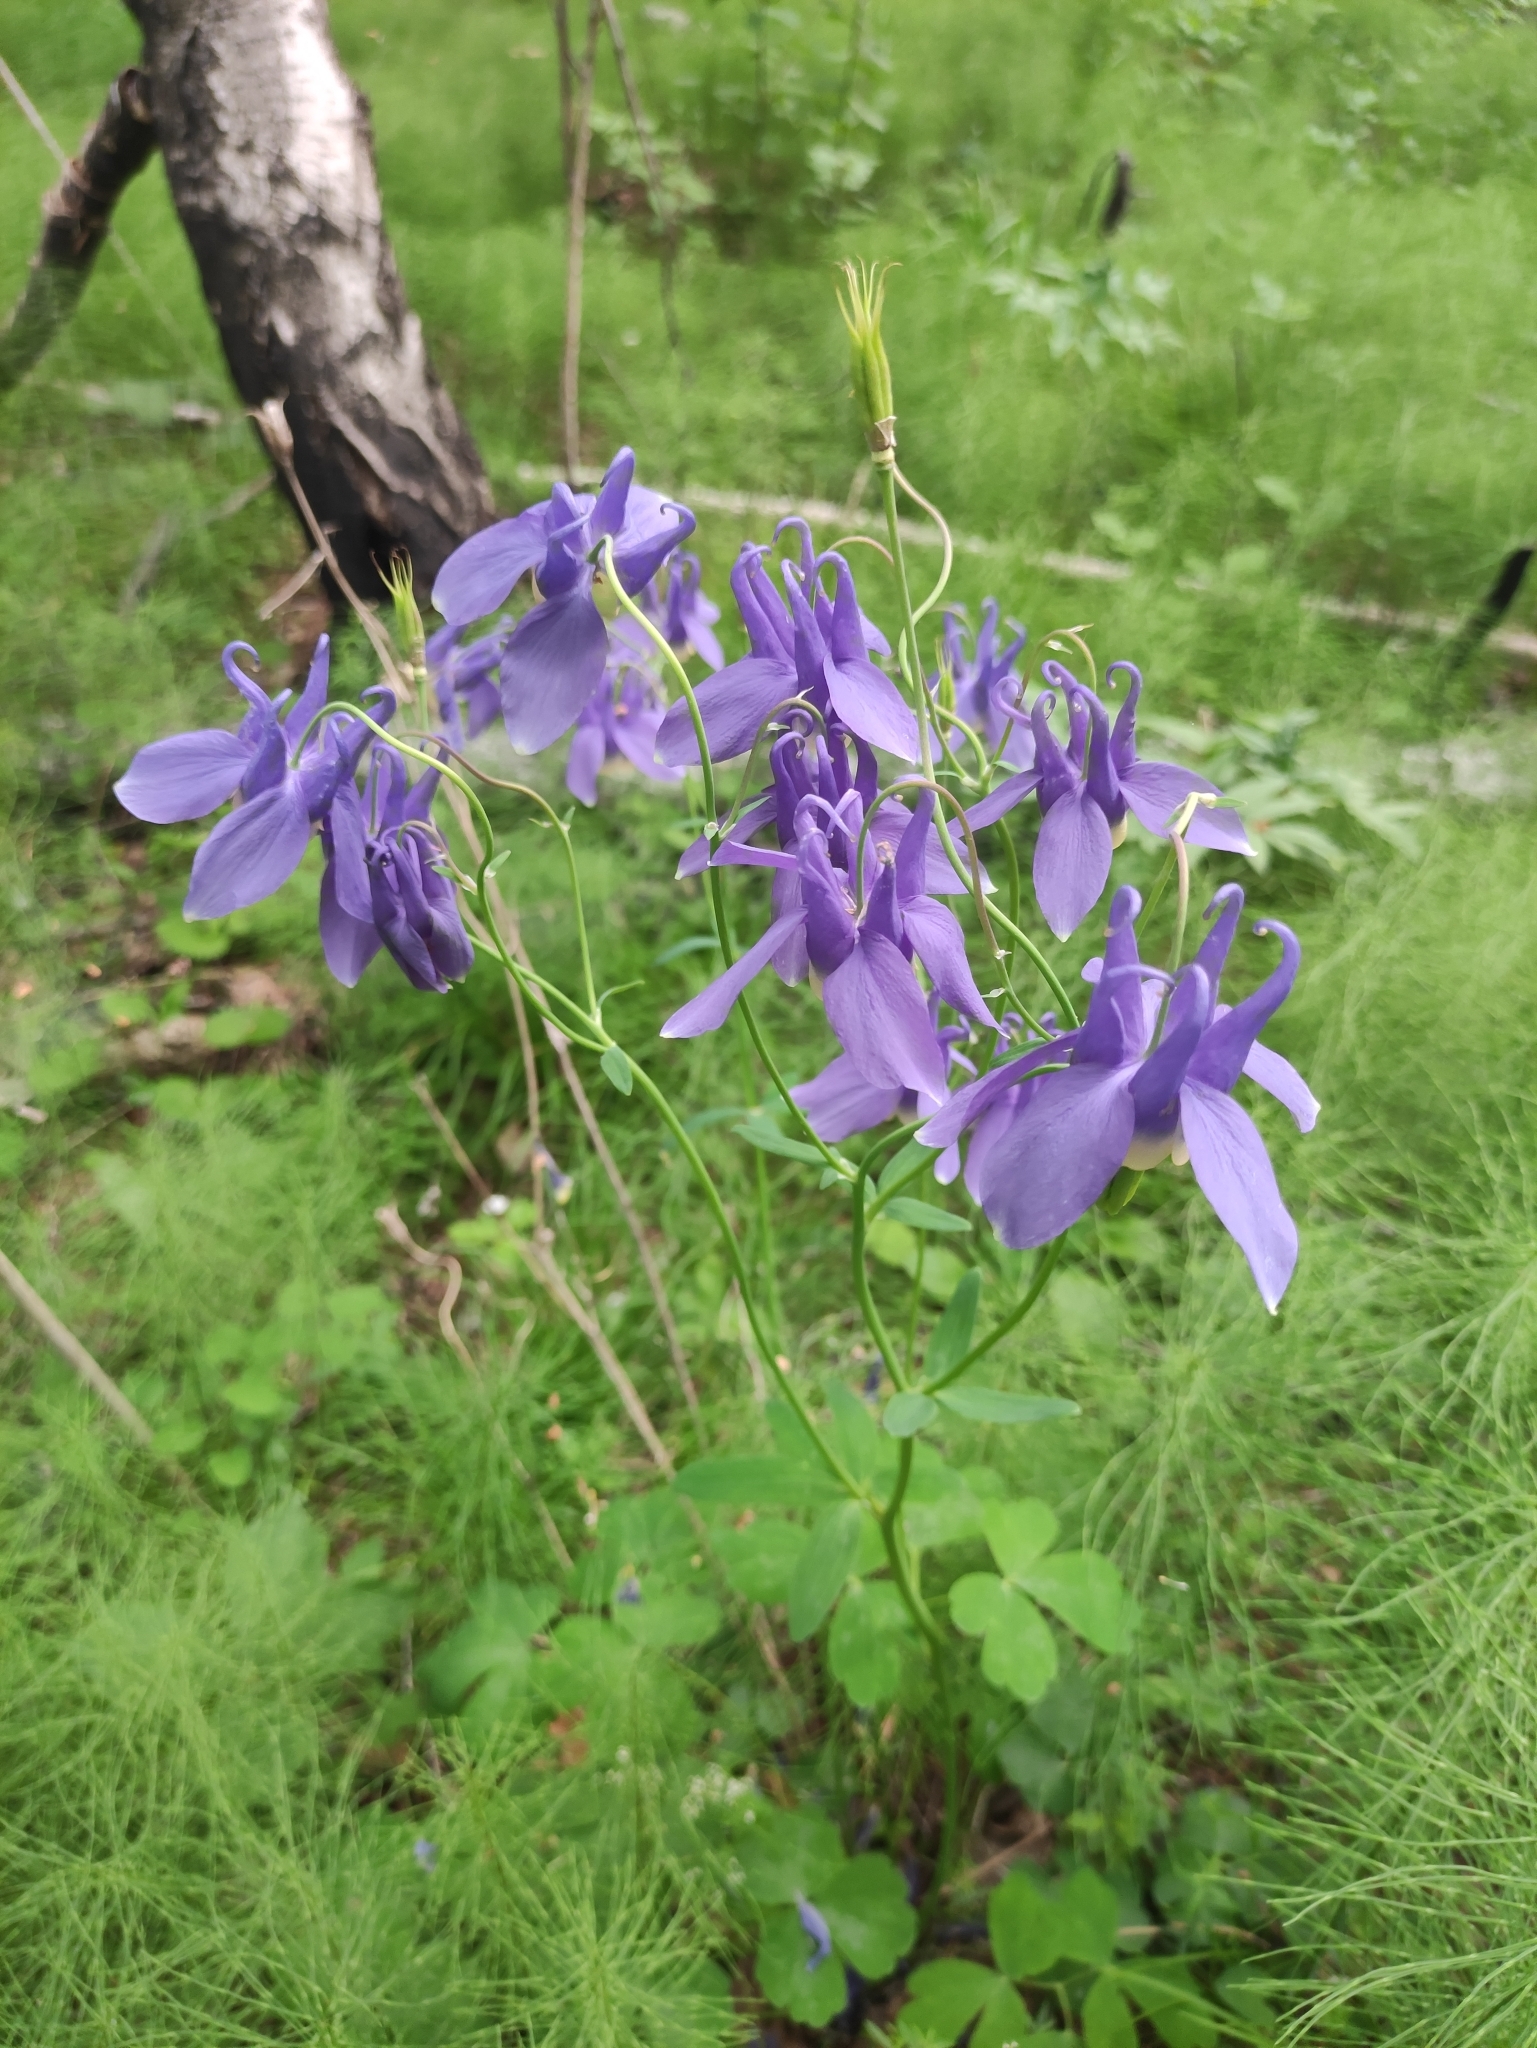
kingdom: Plantae
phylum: Tracheophyta
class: Magnoliopsida
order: Ranunculales
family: Ranunculaceae
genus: Aquilegia
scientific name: Aquilegia sibirica
